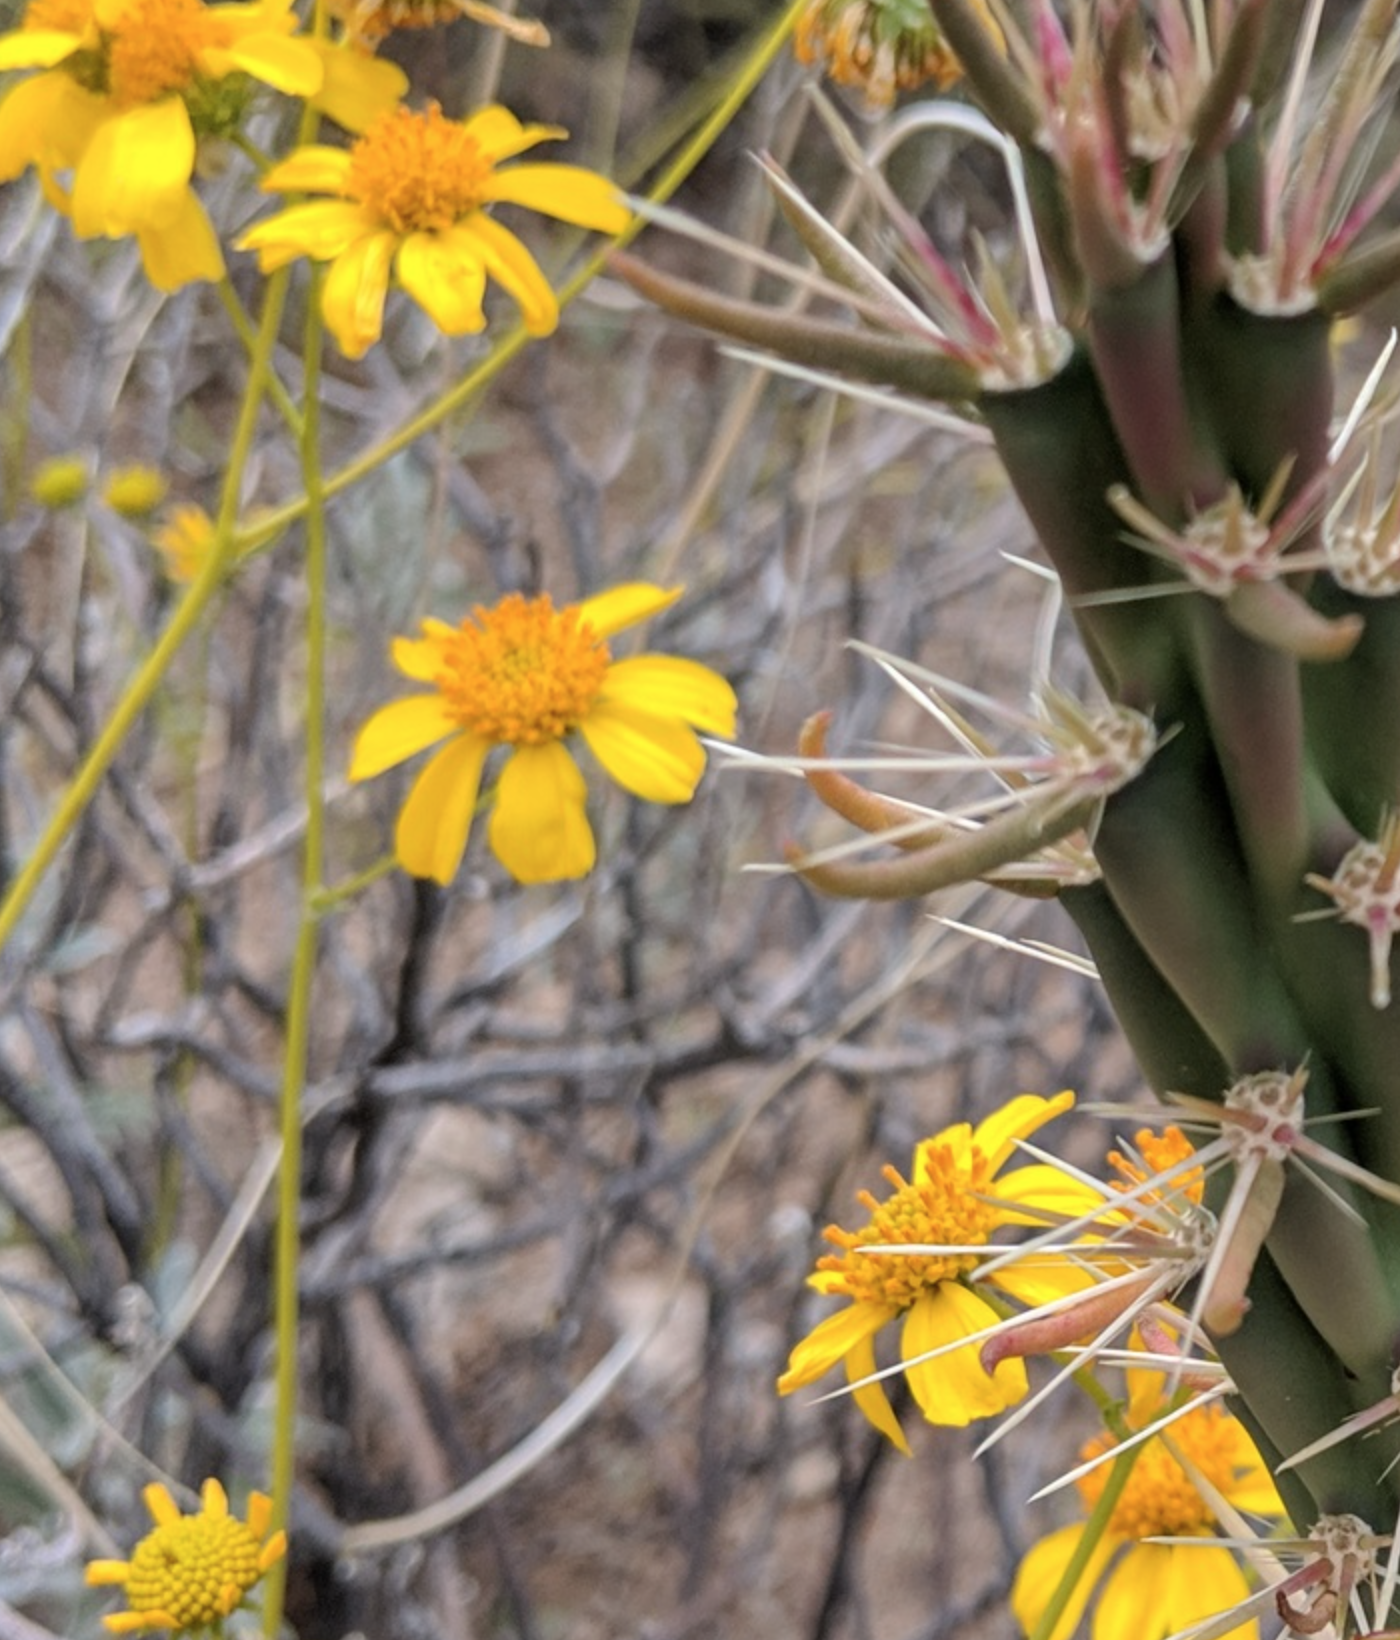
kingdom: Plantae
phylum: Tracheophyta
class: Magnoliopsida
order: Asterales
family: Asteraceae
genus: Encelia
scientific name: Encelia farinosa
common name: Brittlebush
